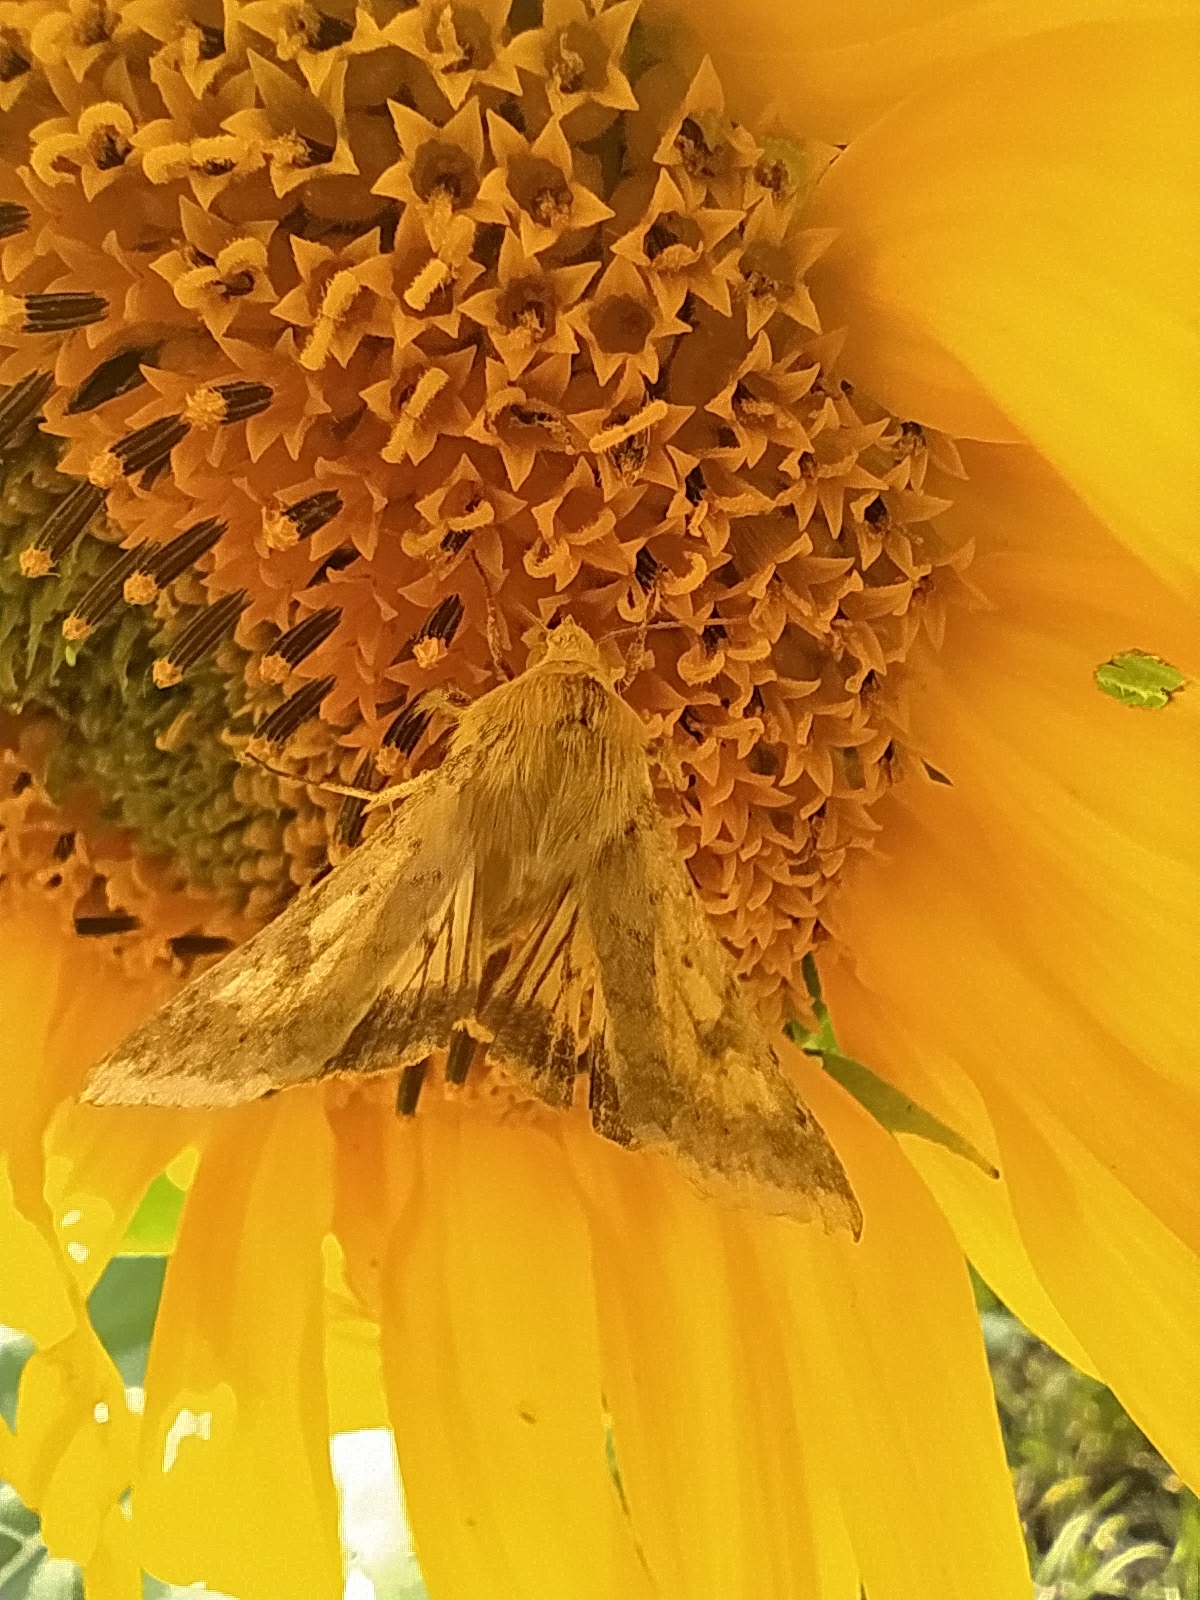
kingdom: Animalia
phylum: Arthropoda
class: Insecta
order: Lepidoptera
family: Noctuidae
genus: Helicoverpa
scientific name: Helicoverpa armigera
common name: Cotton bollworm
